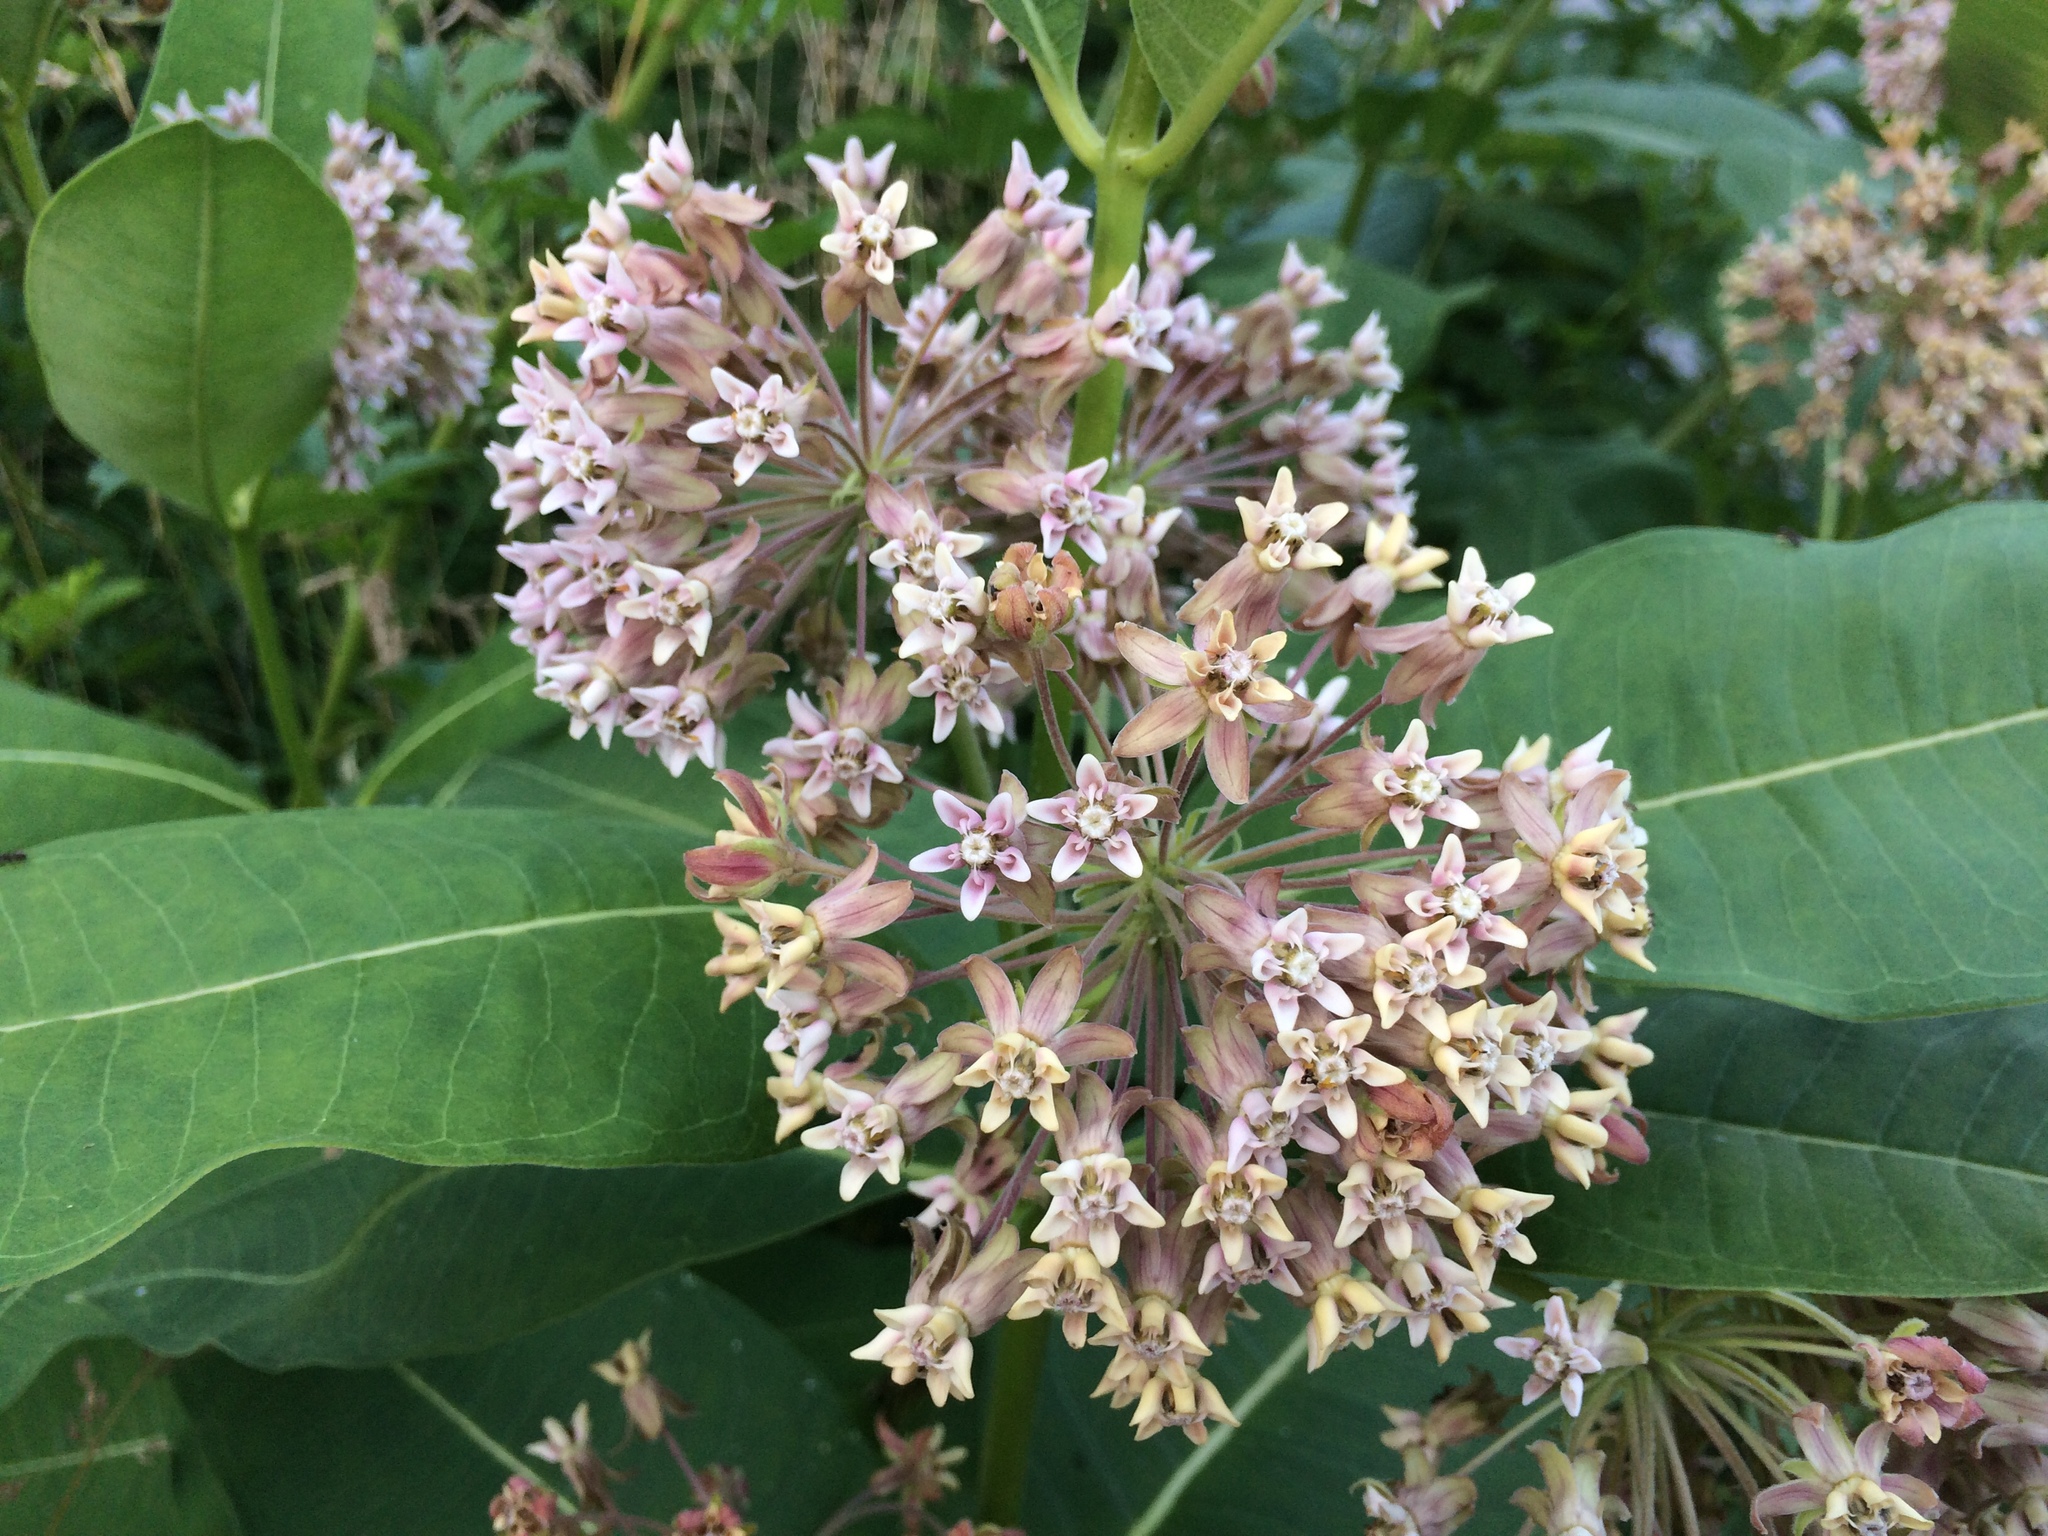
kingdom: Plantae
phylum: Tracheophyta
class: Magnoliopsida
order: Gentianales
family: Apocynaceae
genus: Asclepias
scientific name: Asclepias syriaca
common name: Common milkweed
